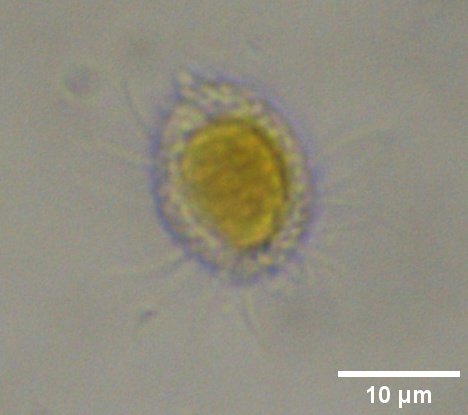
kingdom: Chromista
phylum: Ochrophyta
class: Chrysophyceae
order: Synurales
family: Mallomonadaceae
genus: Mallomonas
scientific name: Mallomonas
